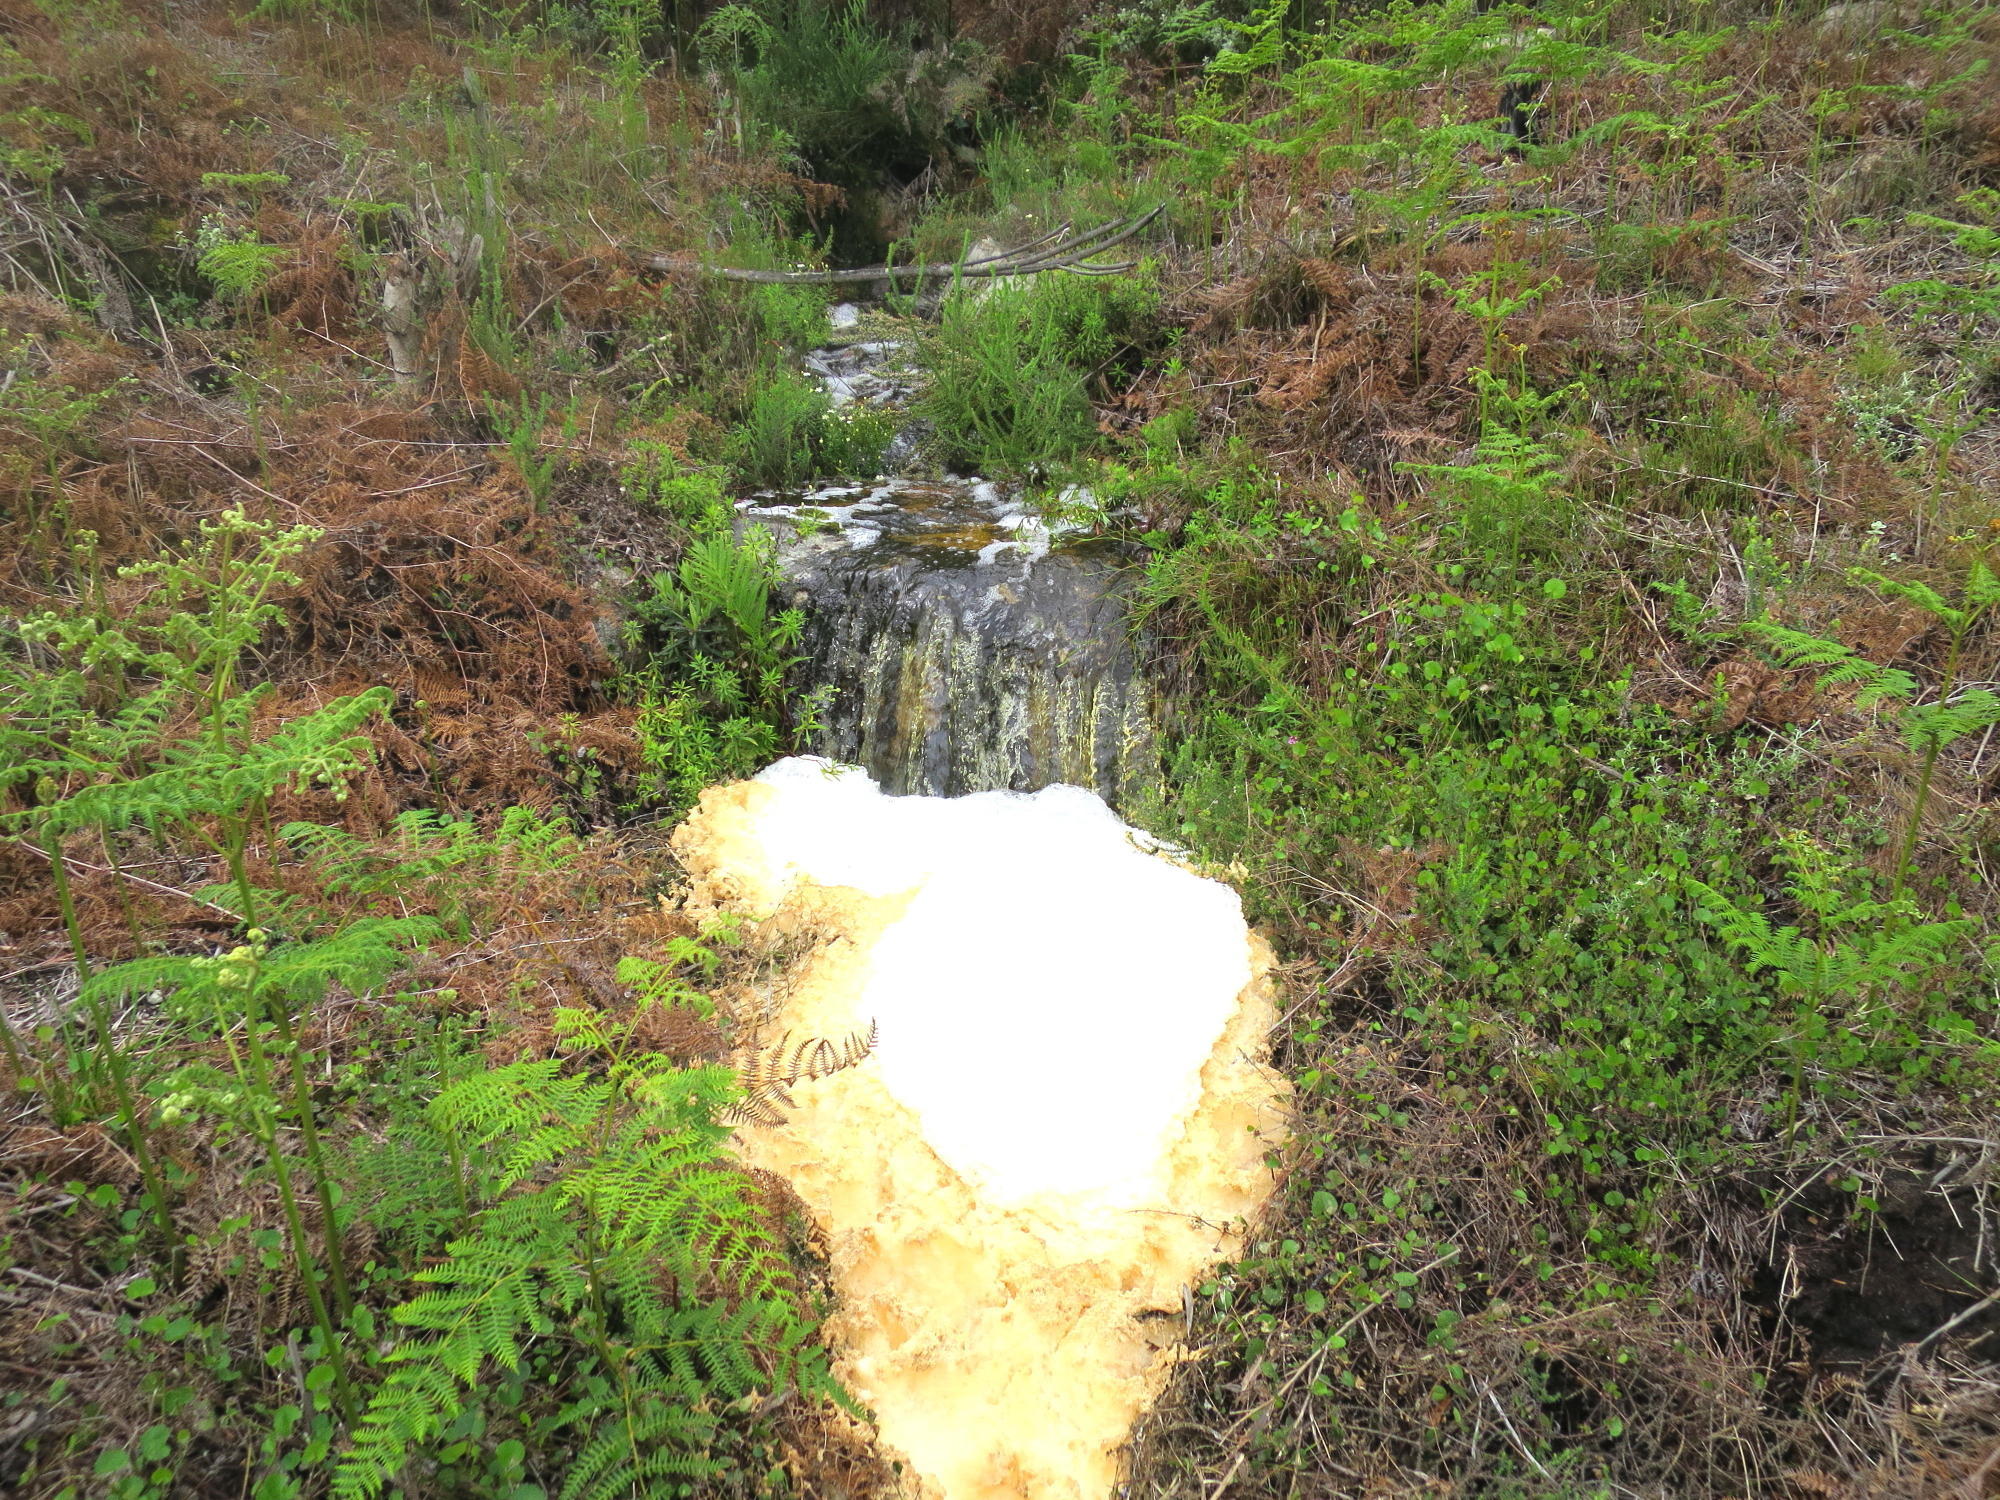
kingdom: Plantae
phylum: Tracheophyta
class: Polypodiopsida
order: Polypodiales
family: Dennstaedtiaceae
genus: Pteridium
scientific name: Pteridium aquilinum
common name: Bracken
